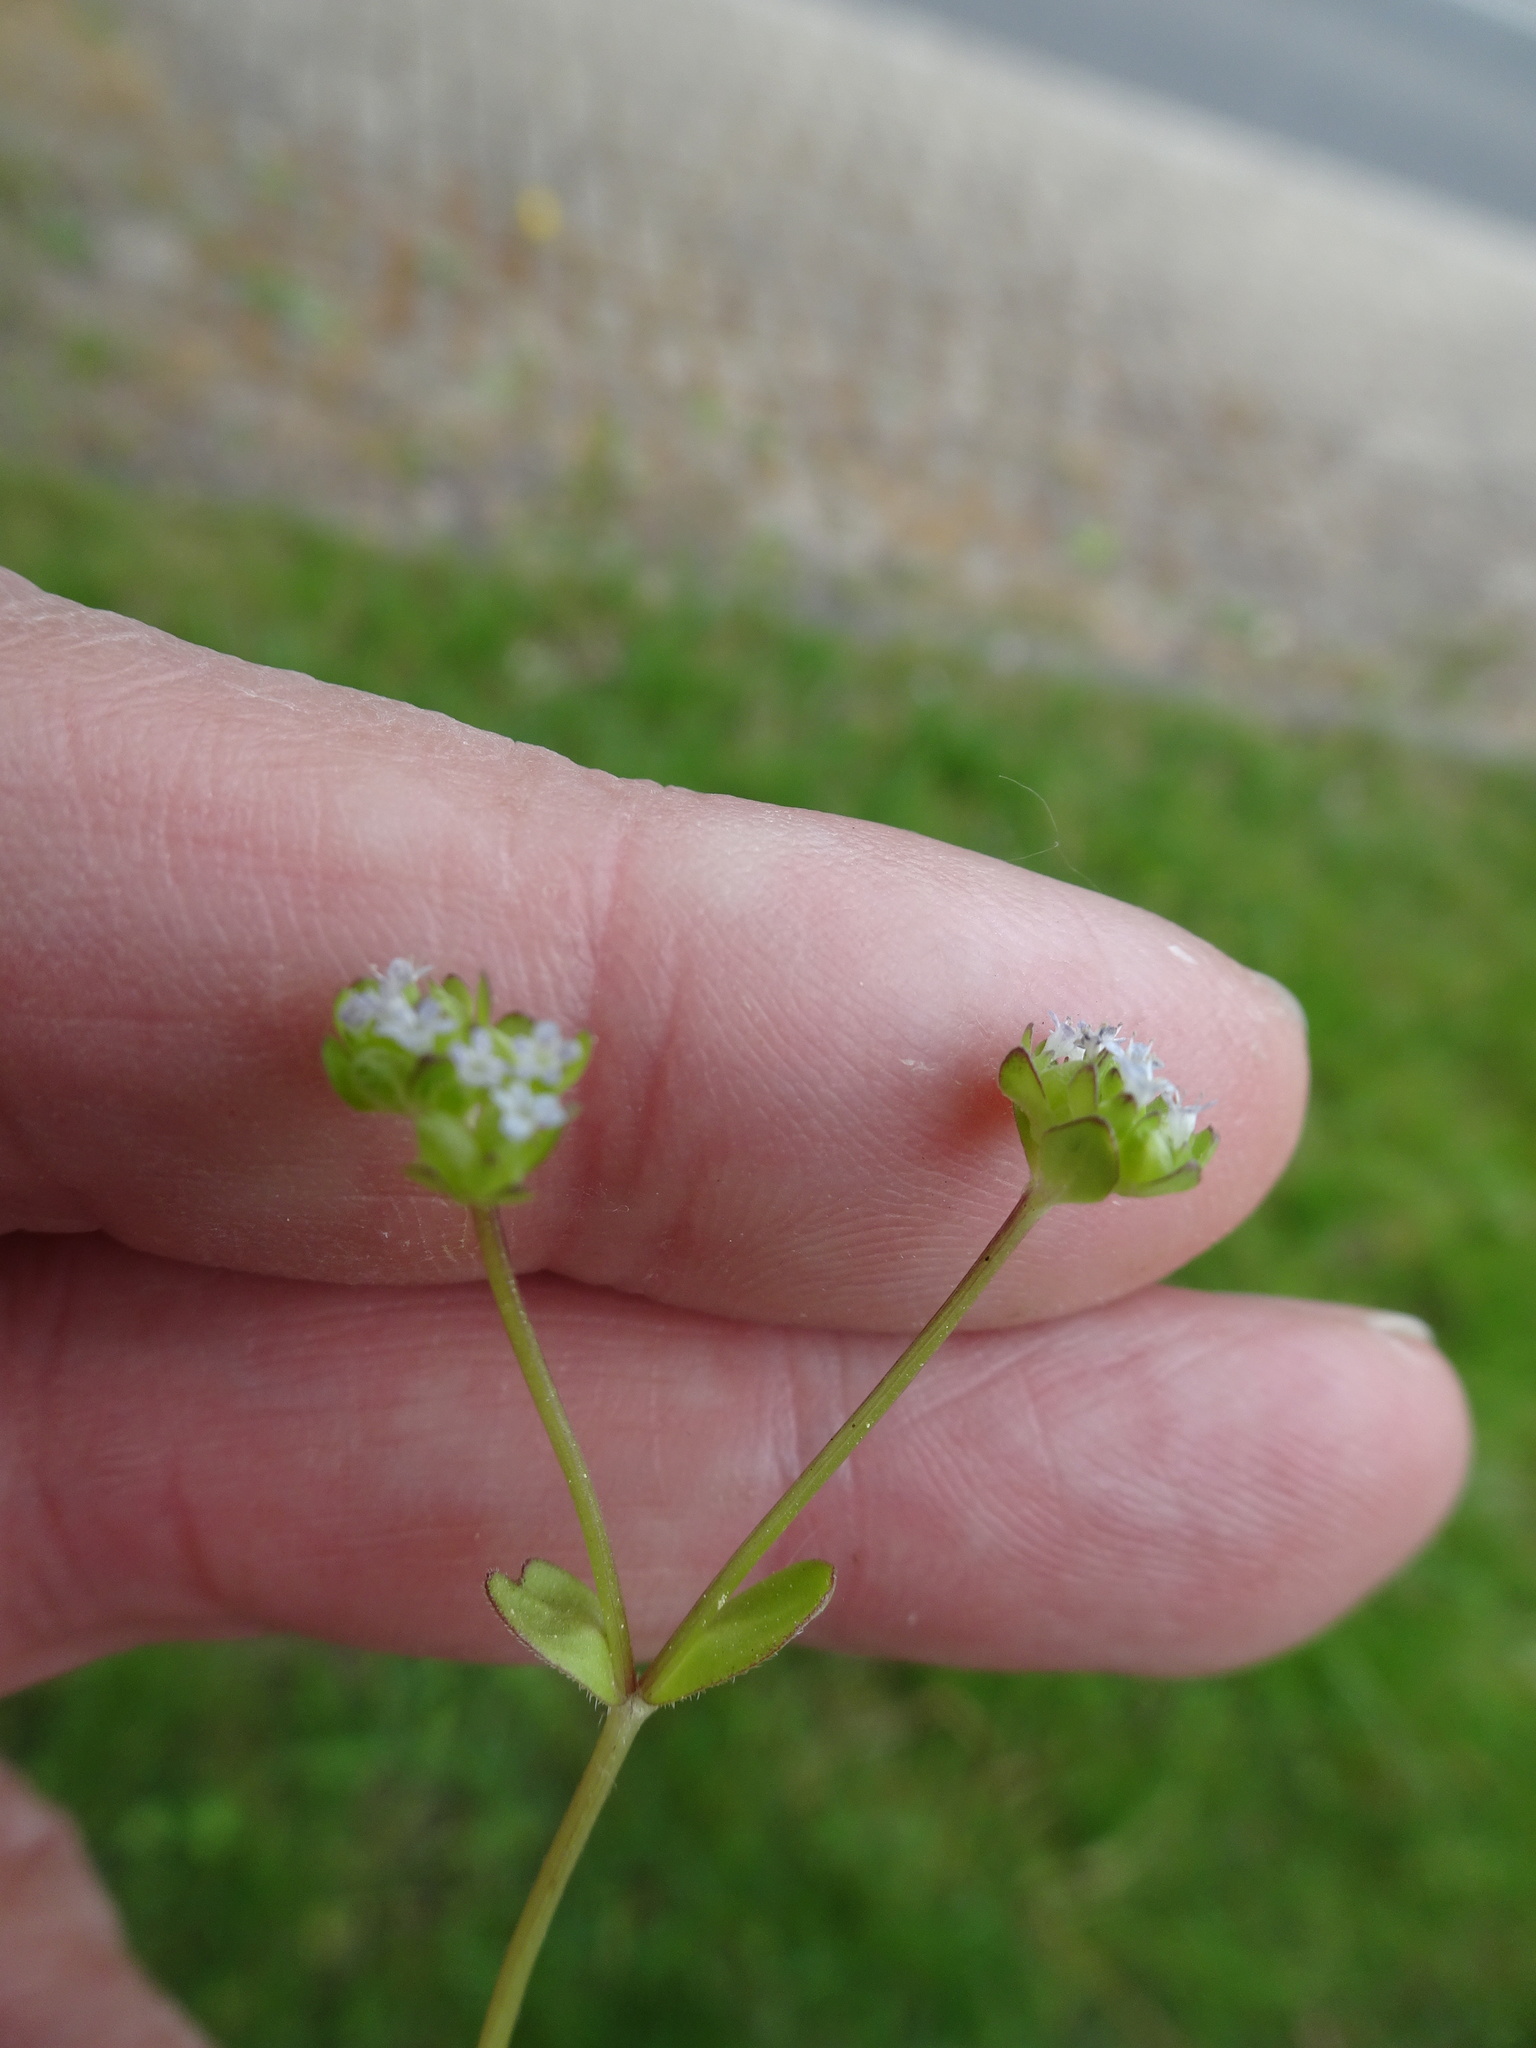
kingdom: Plantae
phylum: Tracheophyta
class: Magnoliopsida
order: Dipsacales
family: Caprifoliaceae
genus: Valerianella
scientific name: Valerianella
